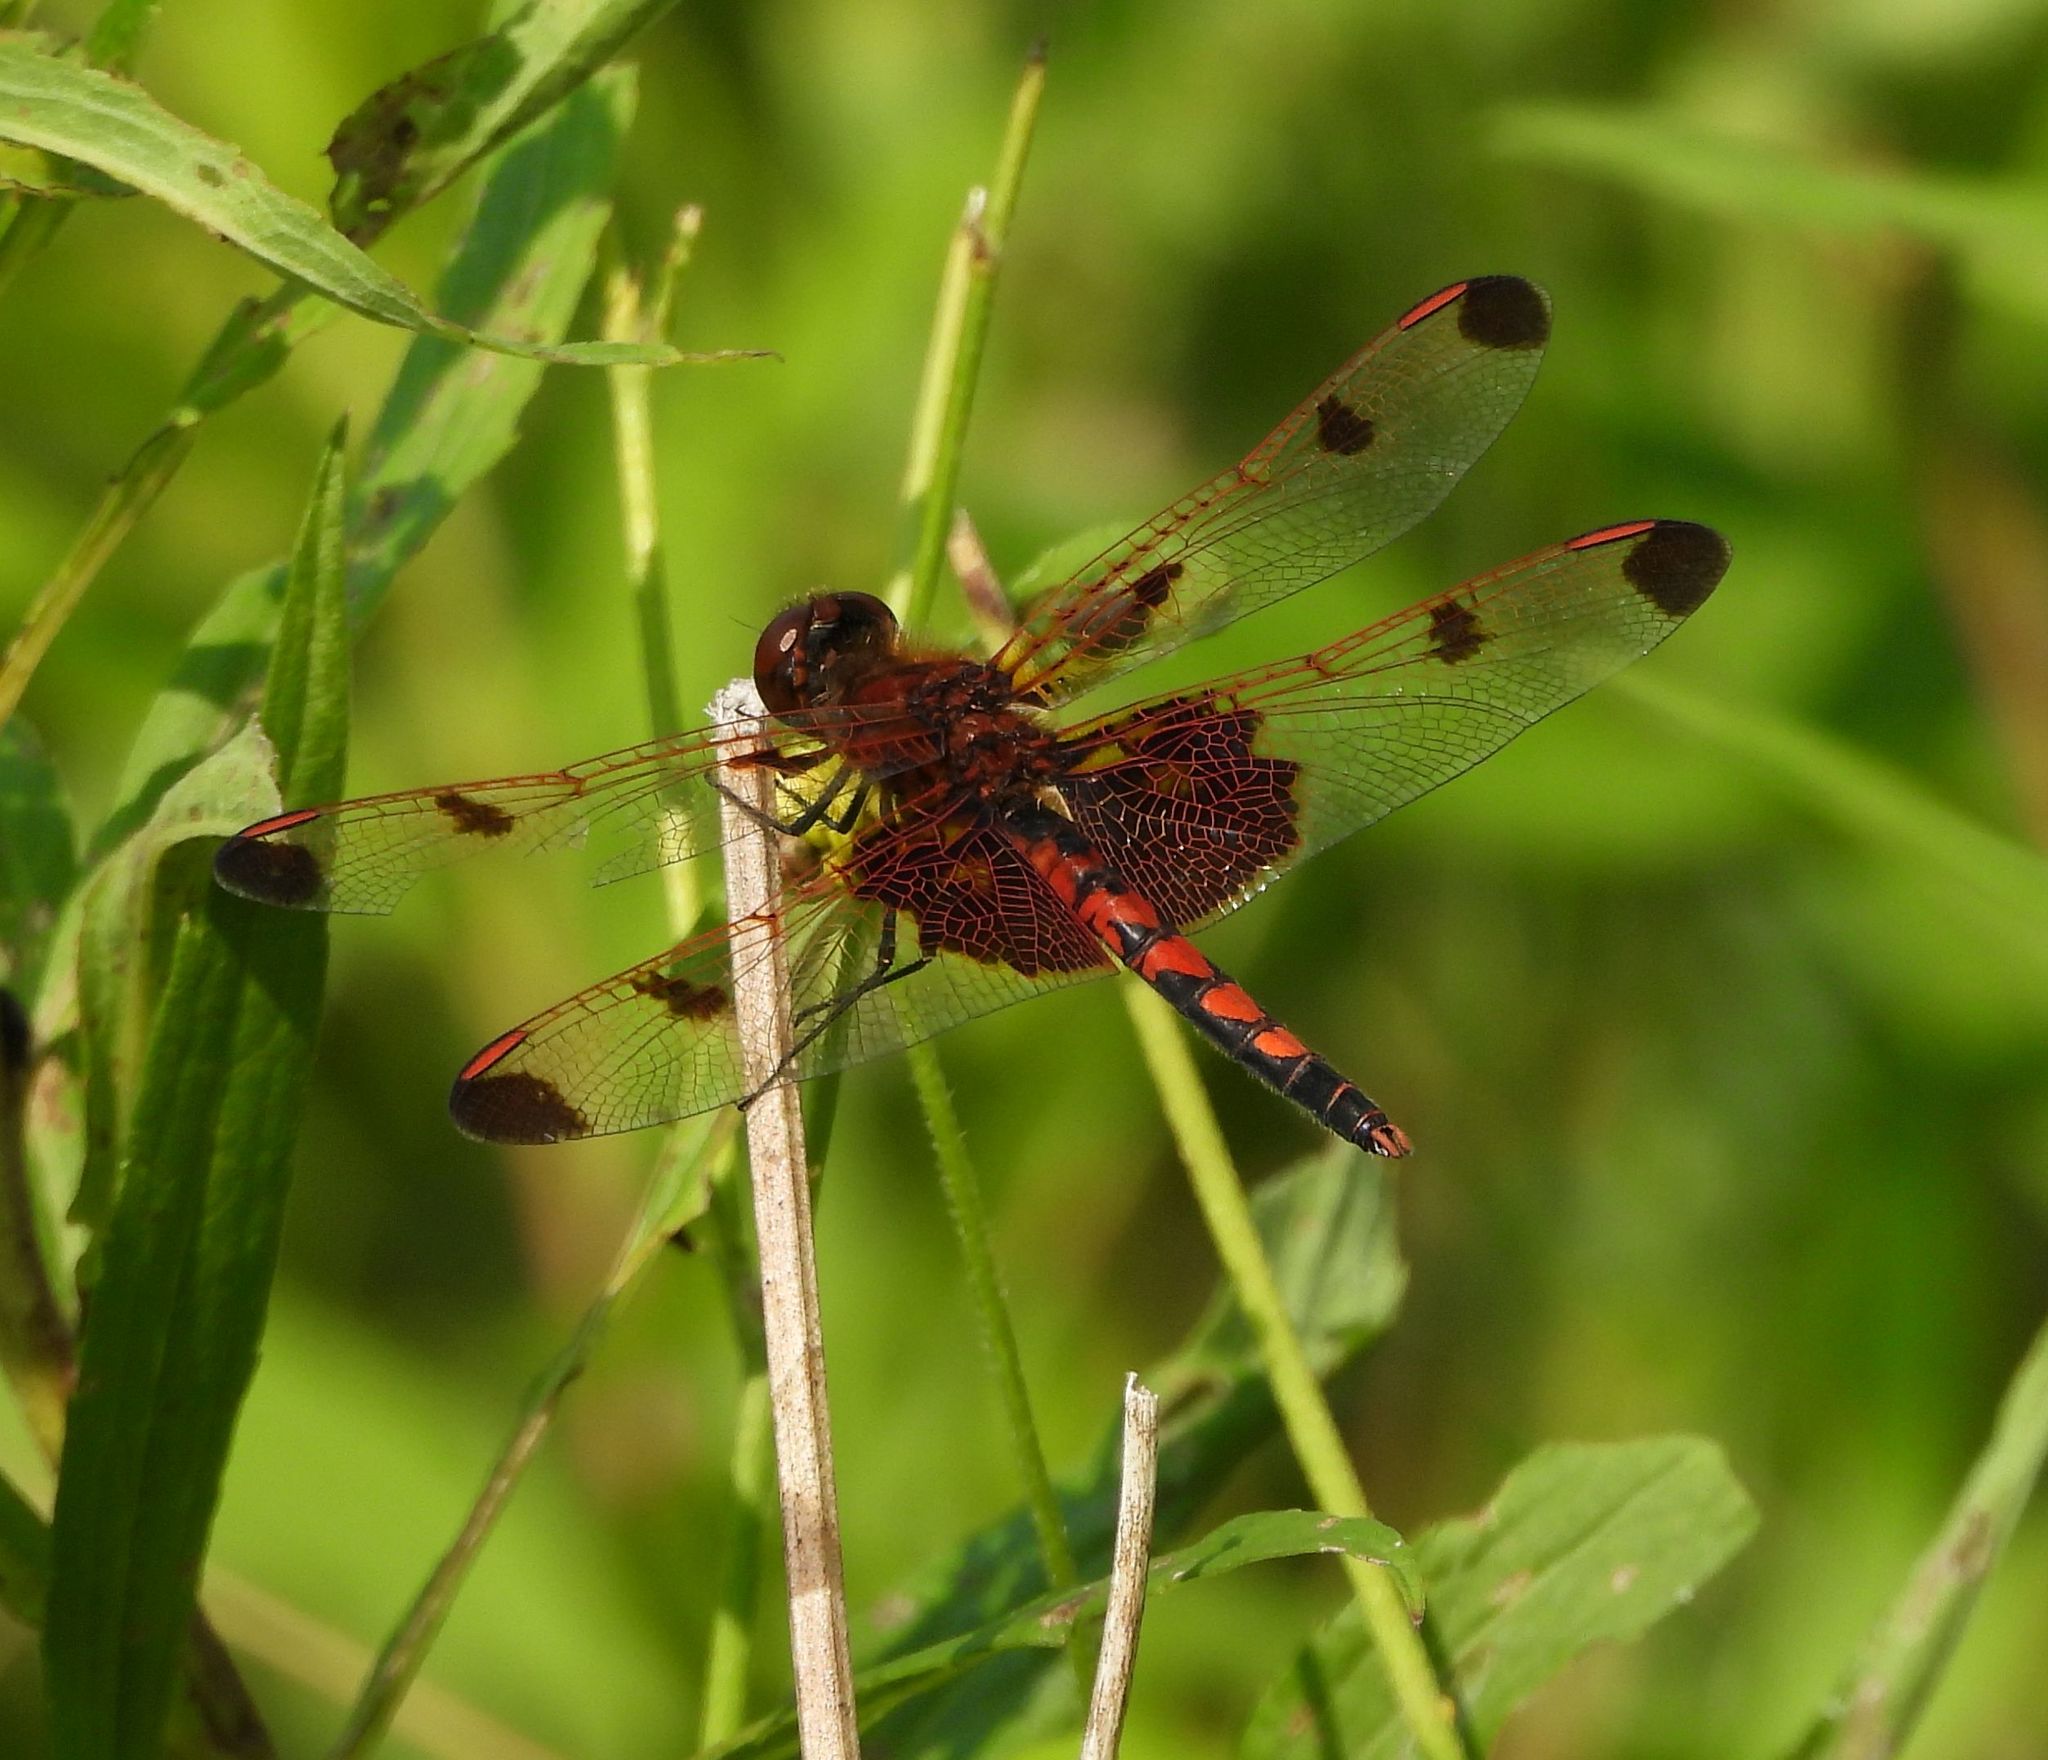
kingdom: Animalia
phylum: Arthropoda
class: Insecta
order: Odonata
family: Libellulidae
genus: Celithemis
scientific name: Celithemis elisa
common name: Calico pennant
